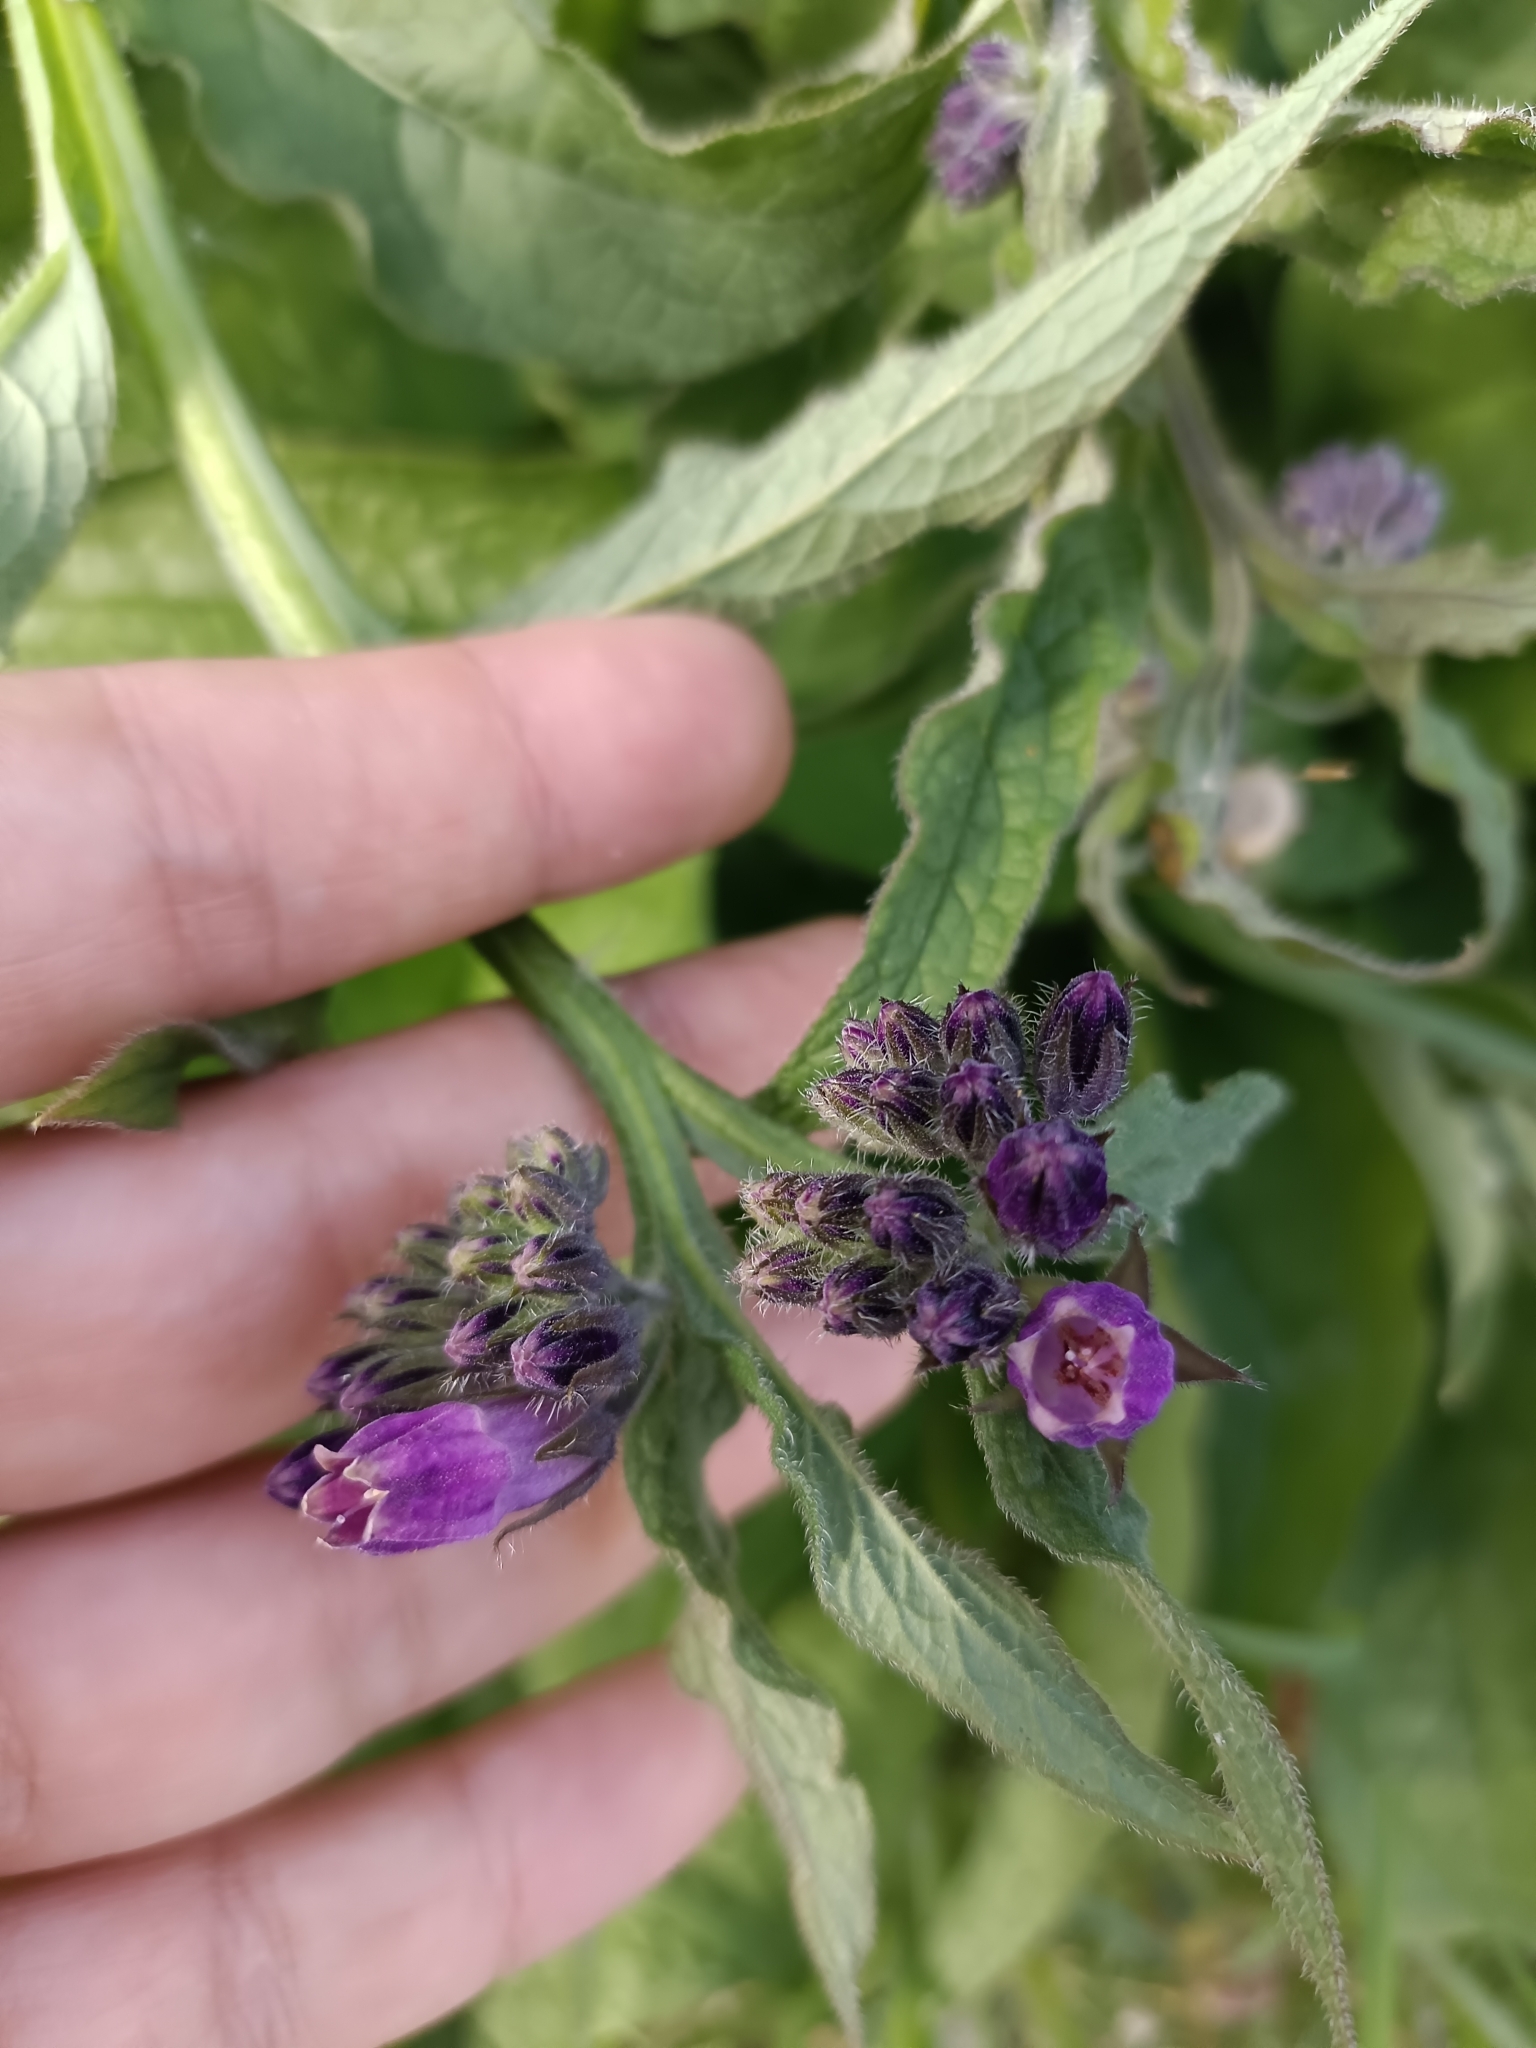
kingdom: Plantae
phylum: Tracheophyta
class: Magnoliopsida
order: Boraginales
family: Boraginaceae
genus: Symphytum
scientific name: Symphytum officinale
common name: Common comfrey
